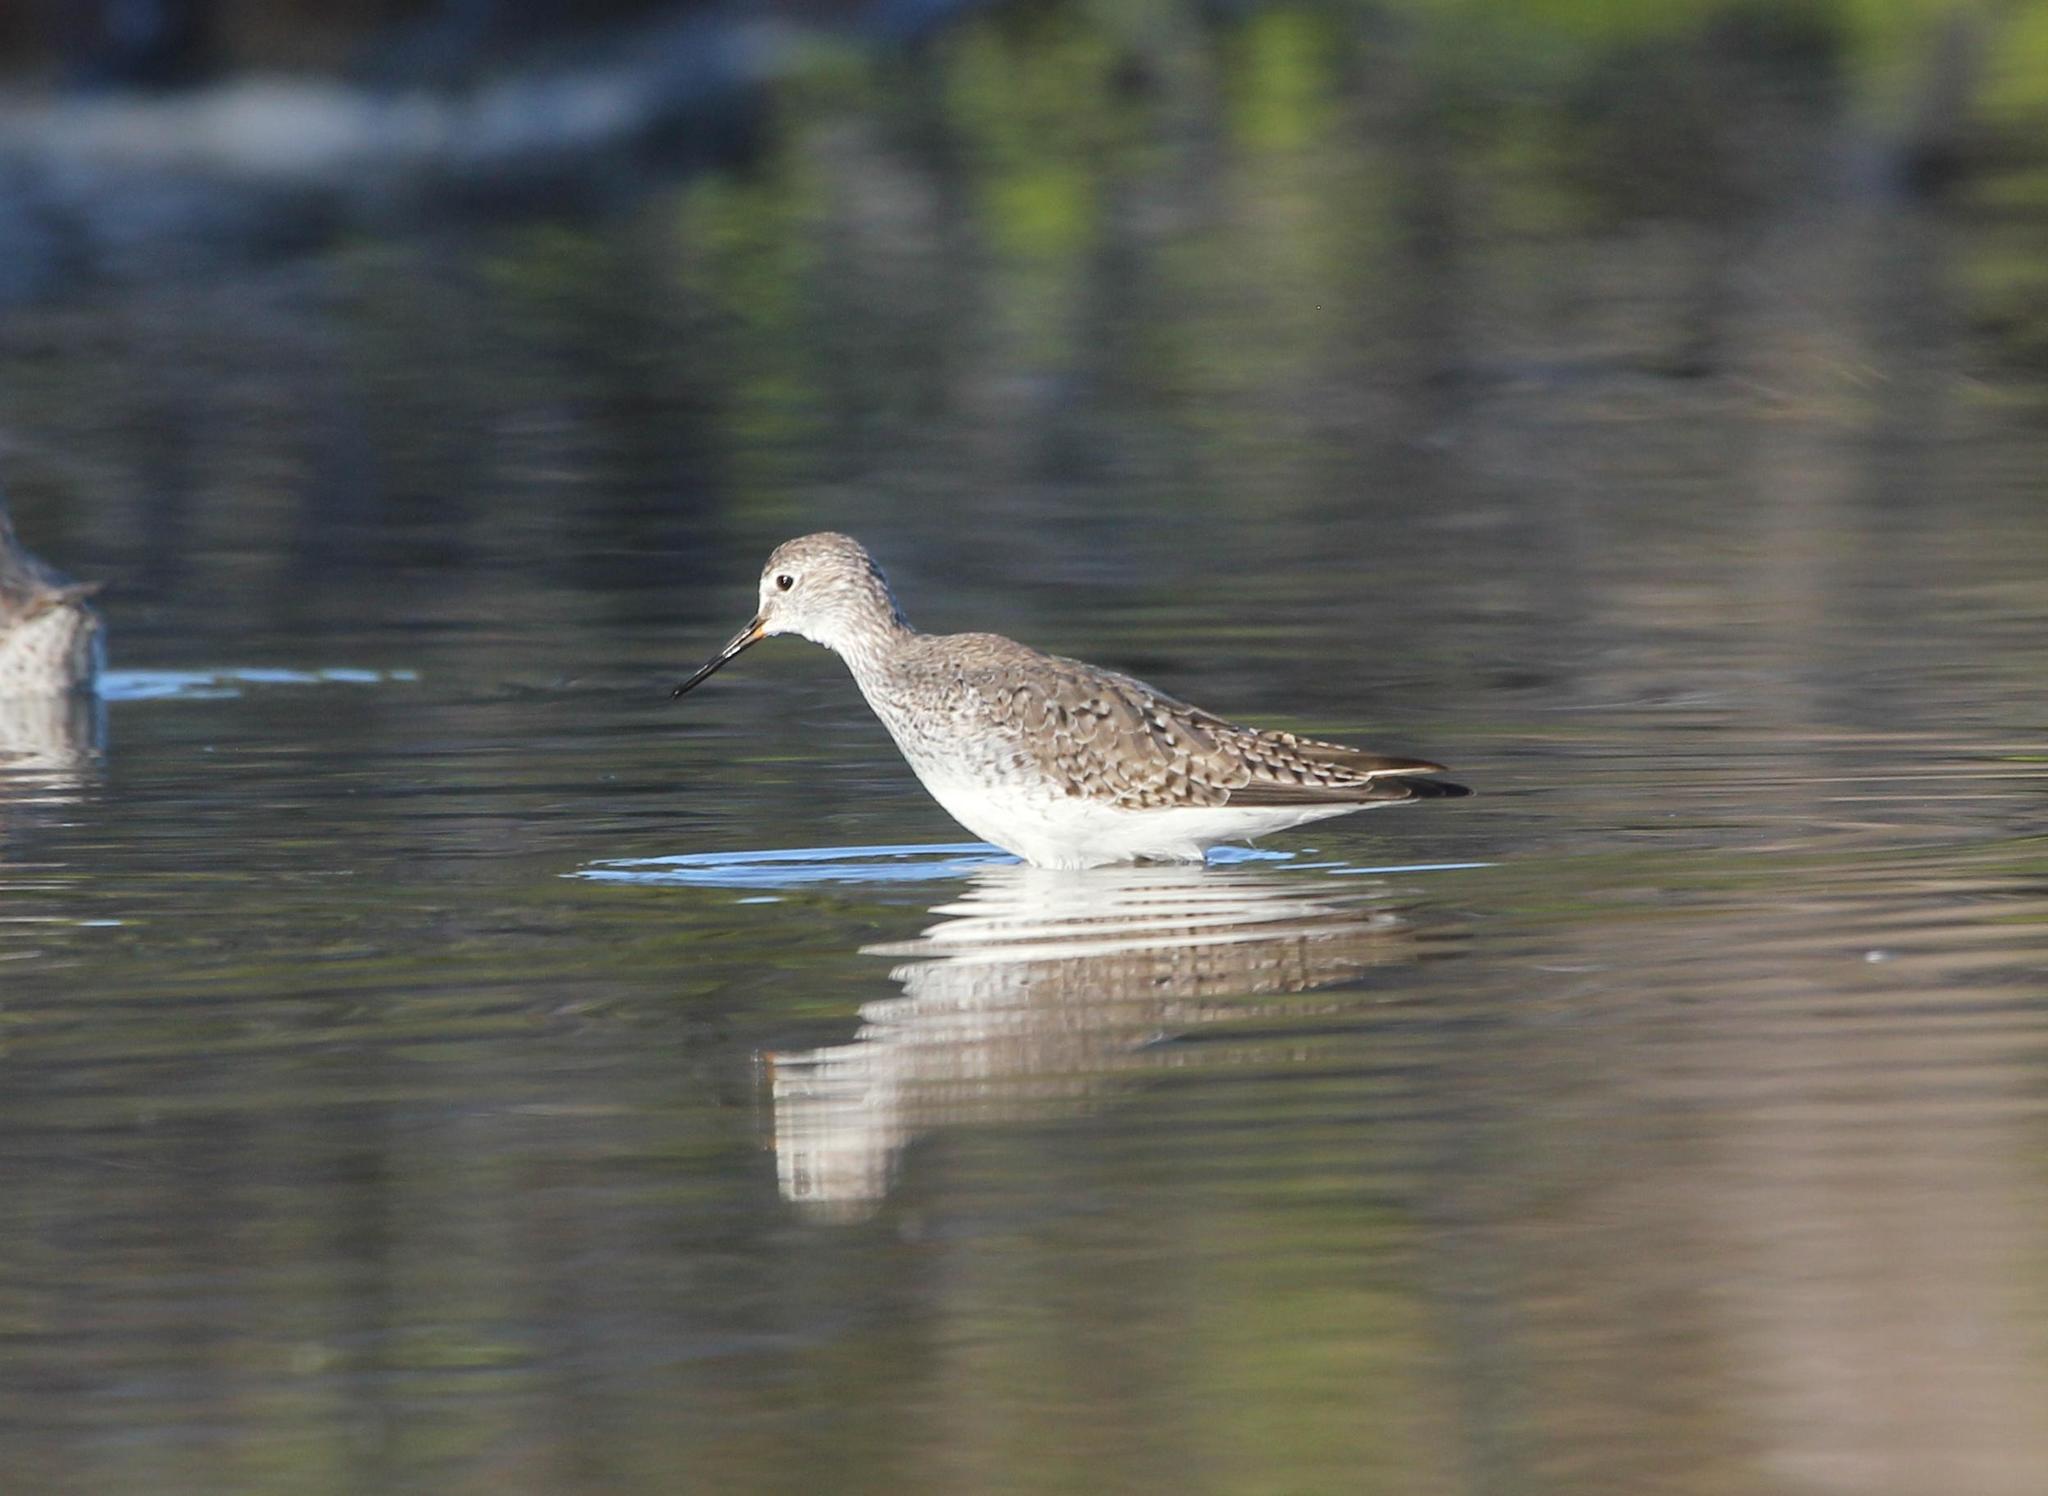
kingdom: Animalia
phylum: Chordata
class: Aves
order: Charadriiformes
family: Scolopacidae
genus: Tringa
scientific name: Tringa flavipes
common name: Lesser yellowlegs
